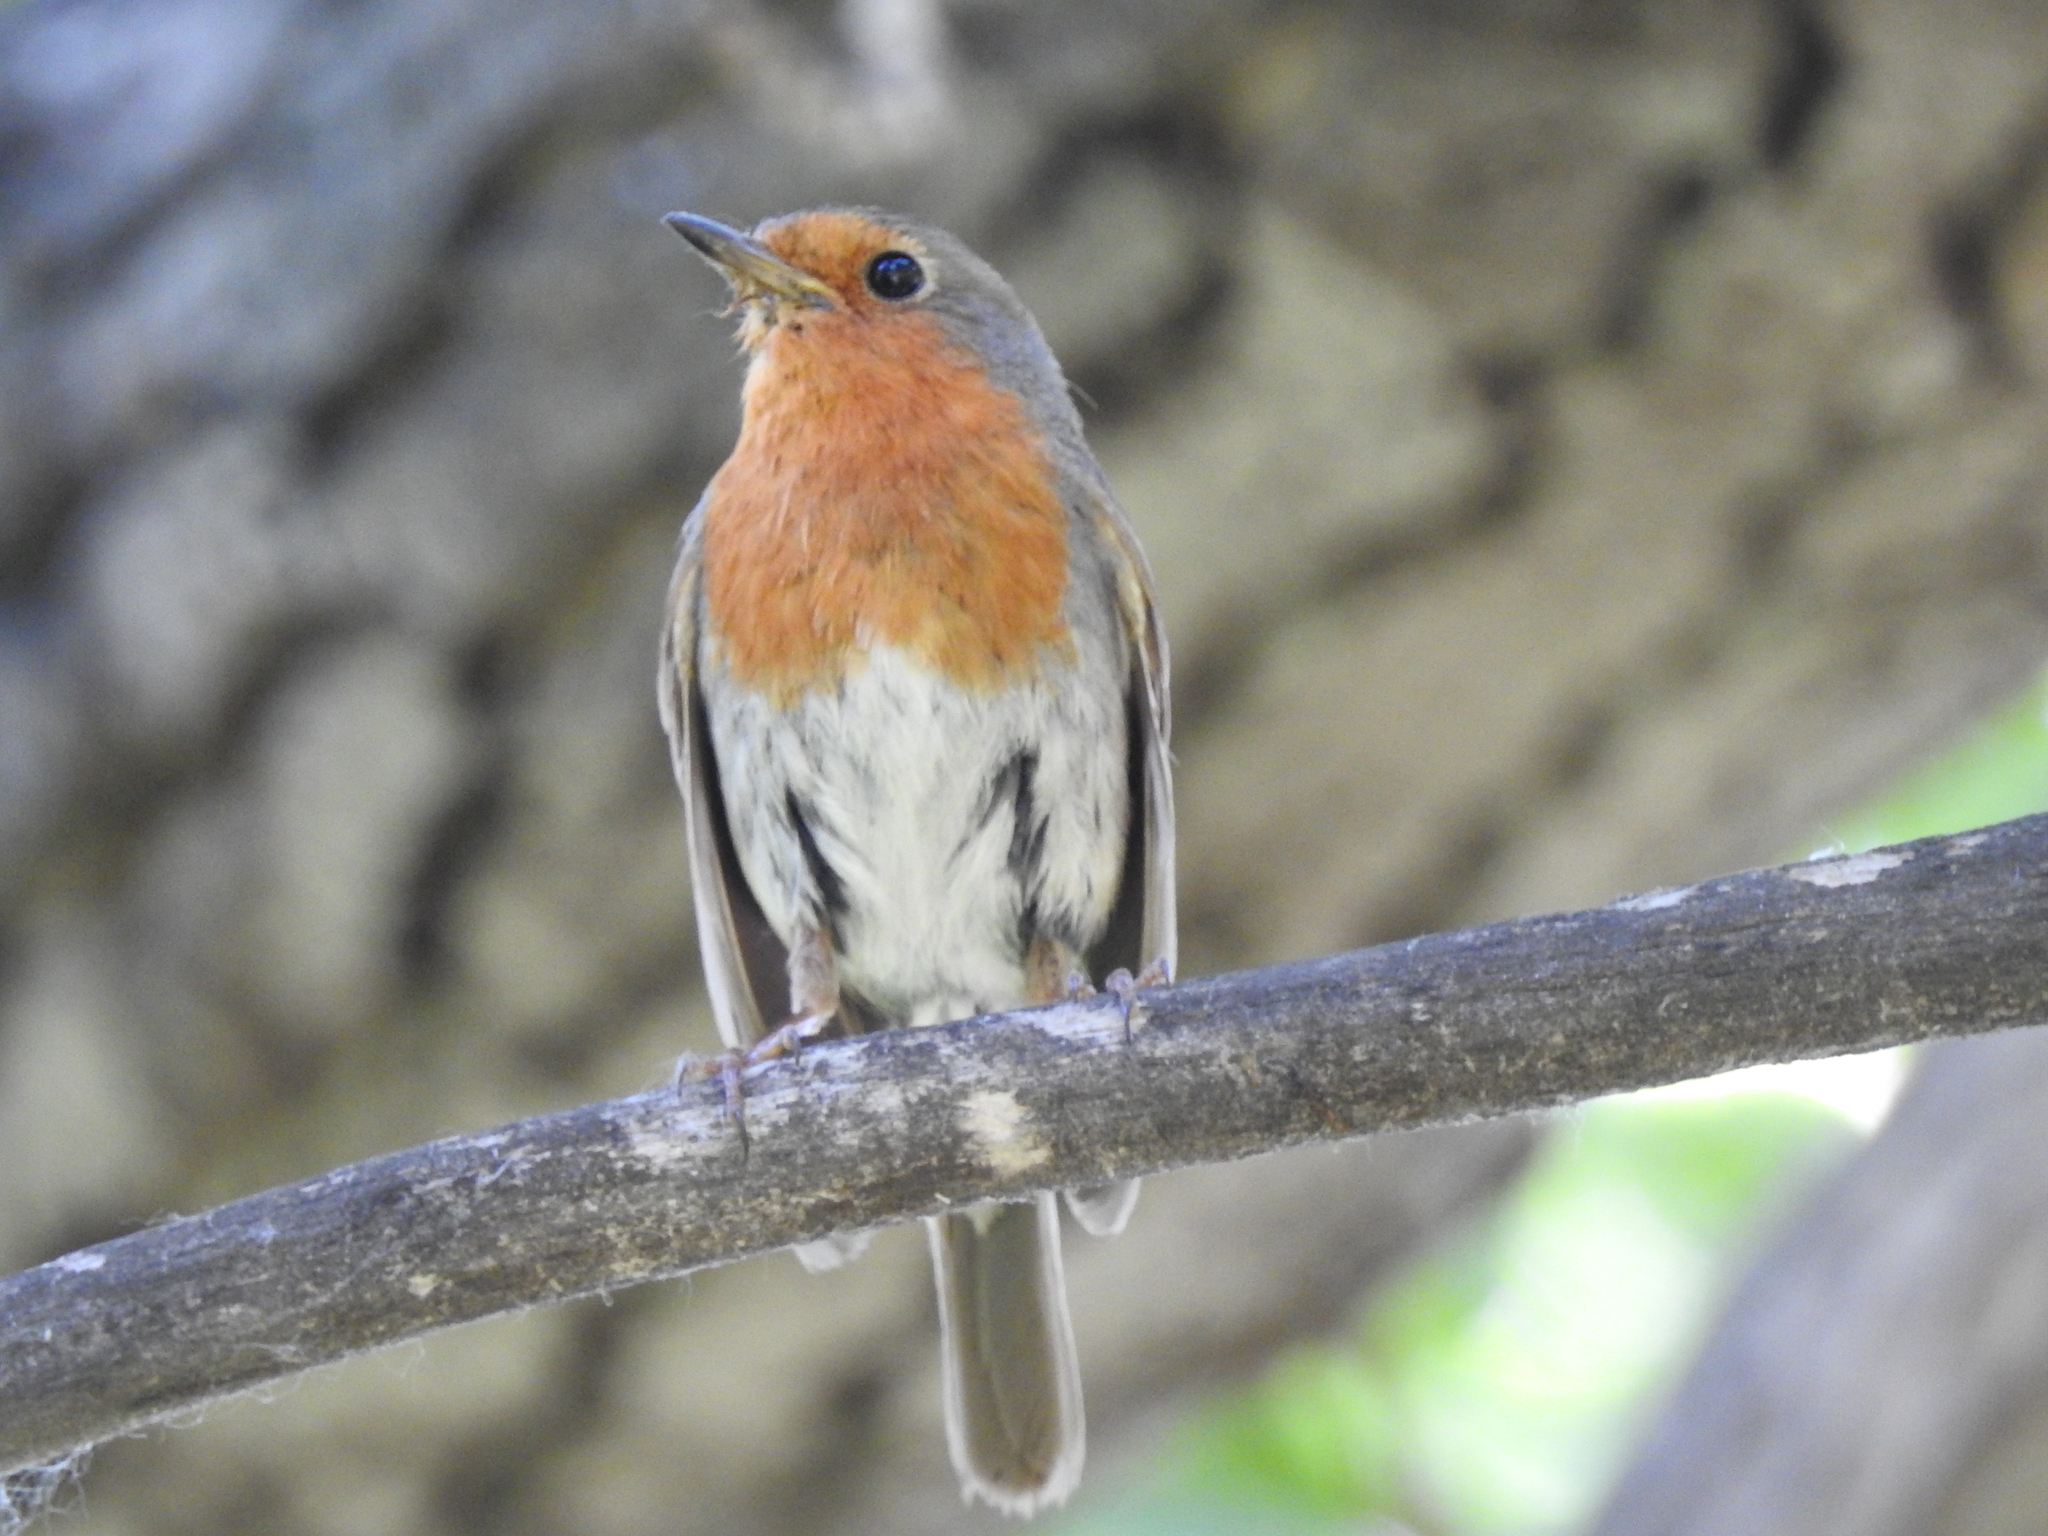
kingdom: Animalia
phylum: Chordata
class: Aves
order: Passeriformes
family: Muscicapidae
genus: Erithacus
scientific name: Erithacus rubecula
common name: European robin
